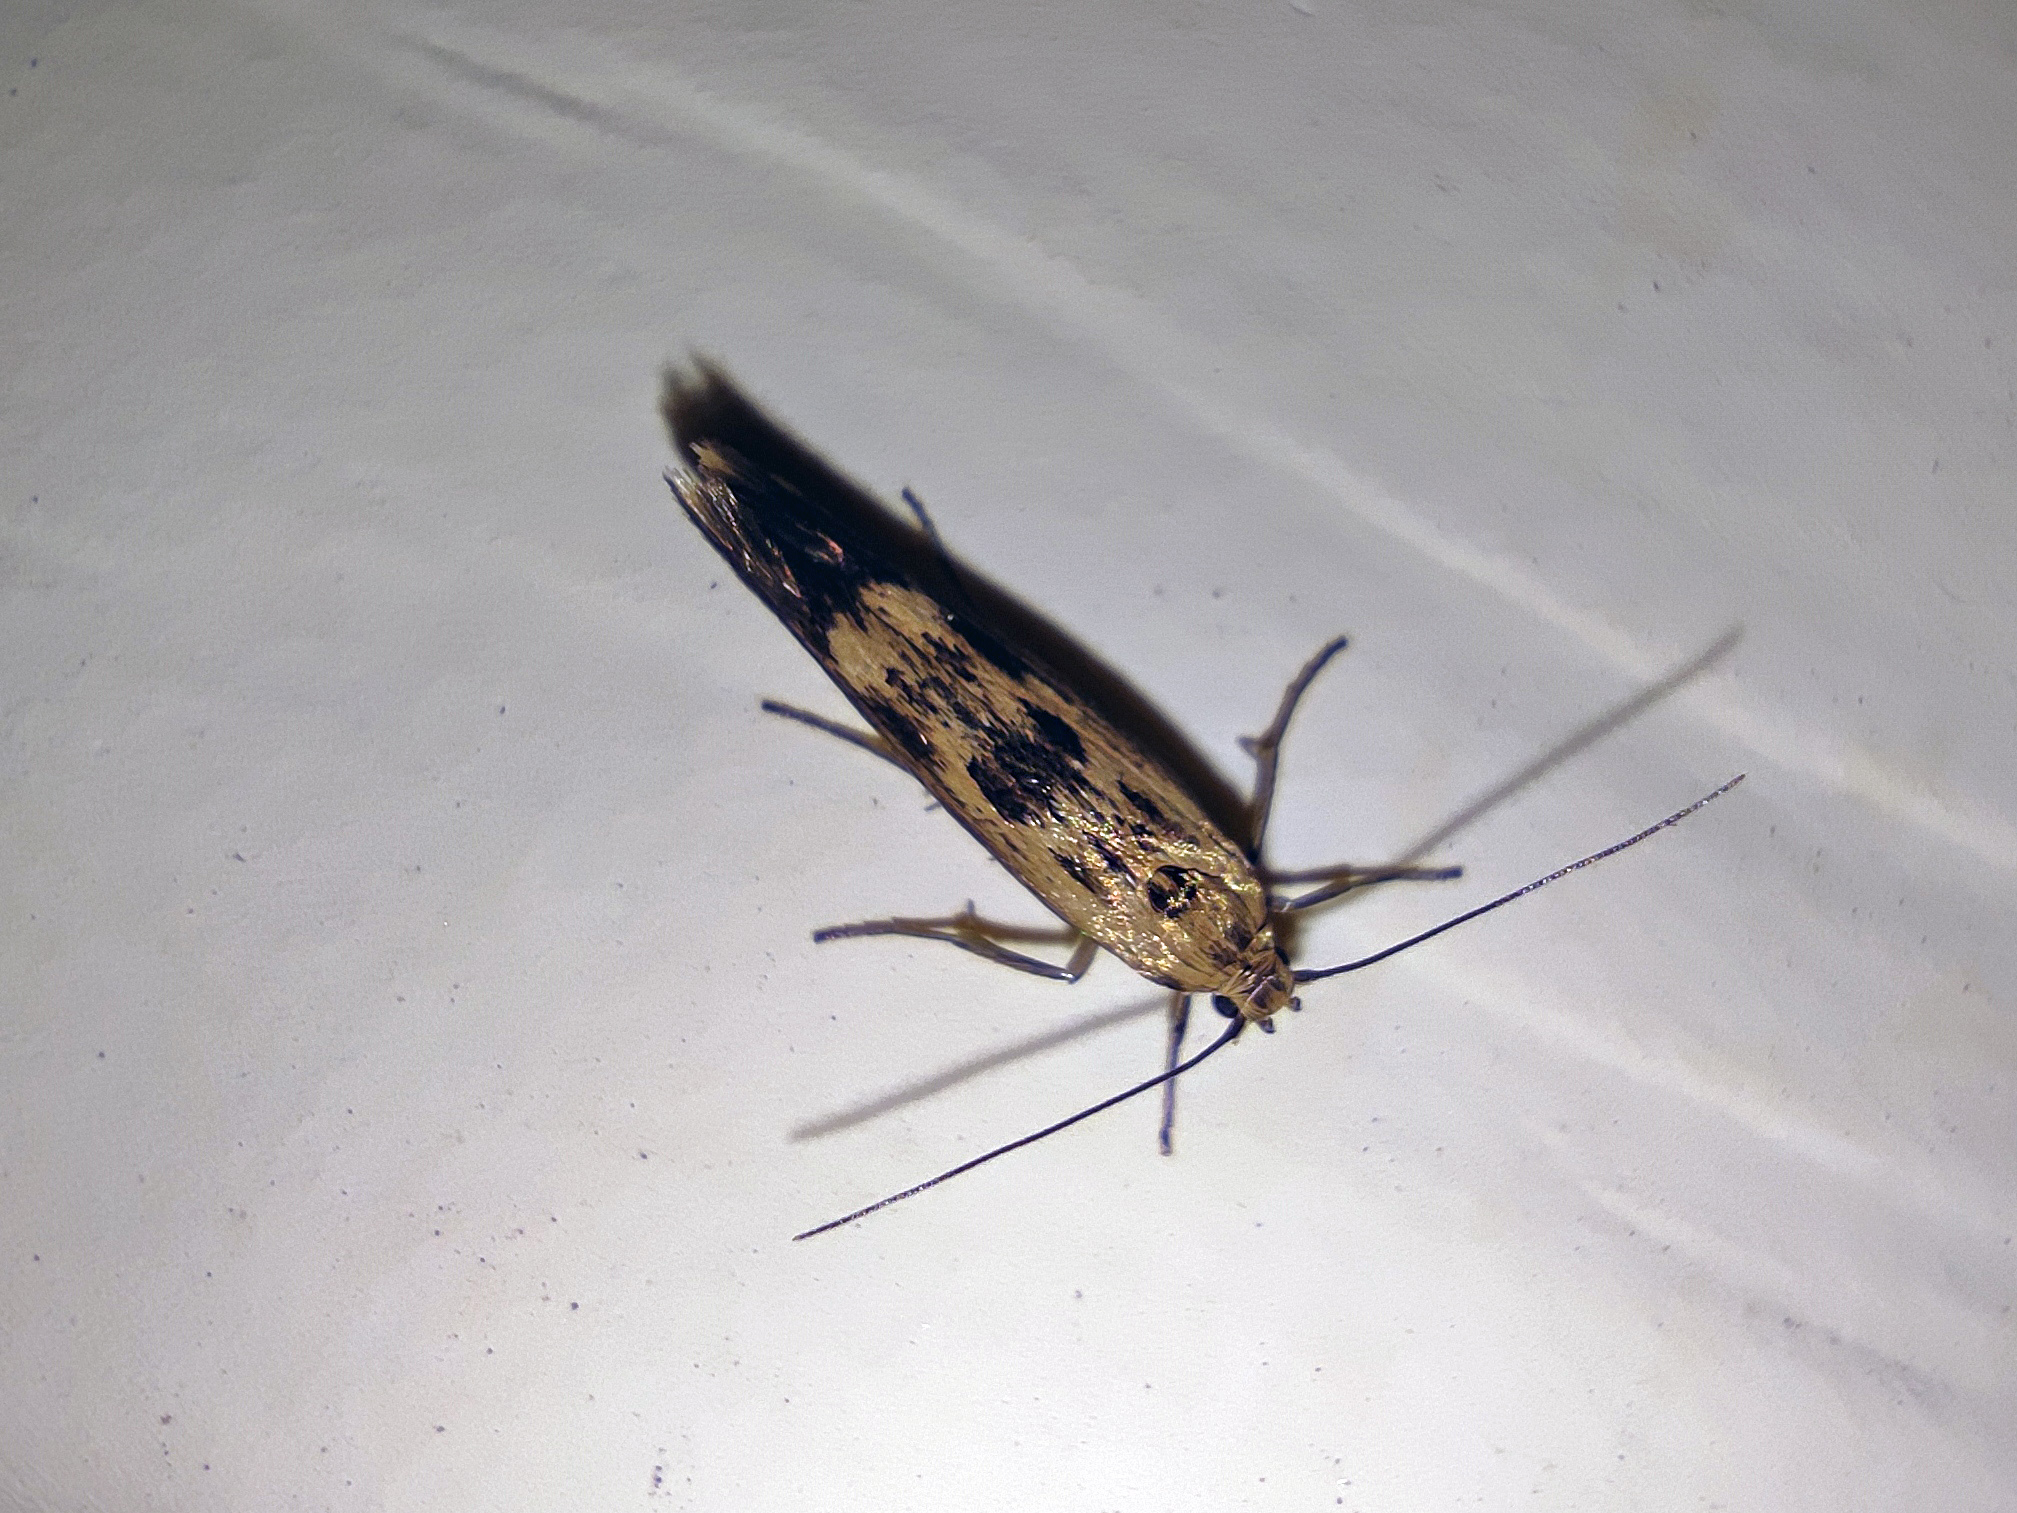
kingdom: Animalia
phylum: Arthropoda
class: Insecta
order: Lepidoptera
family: Scythrididae
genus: Scythris
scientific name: Scythris limbella
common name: Goosefoot owlet
